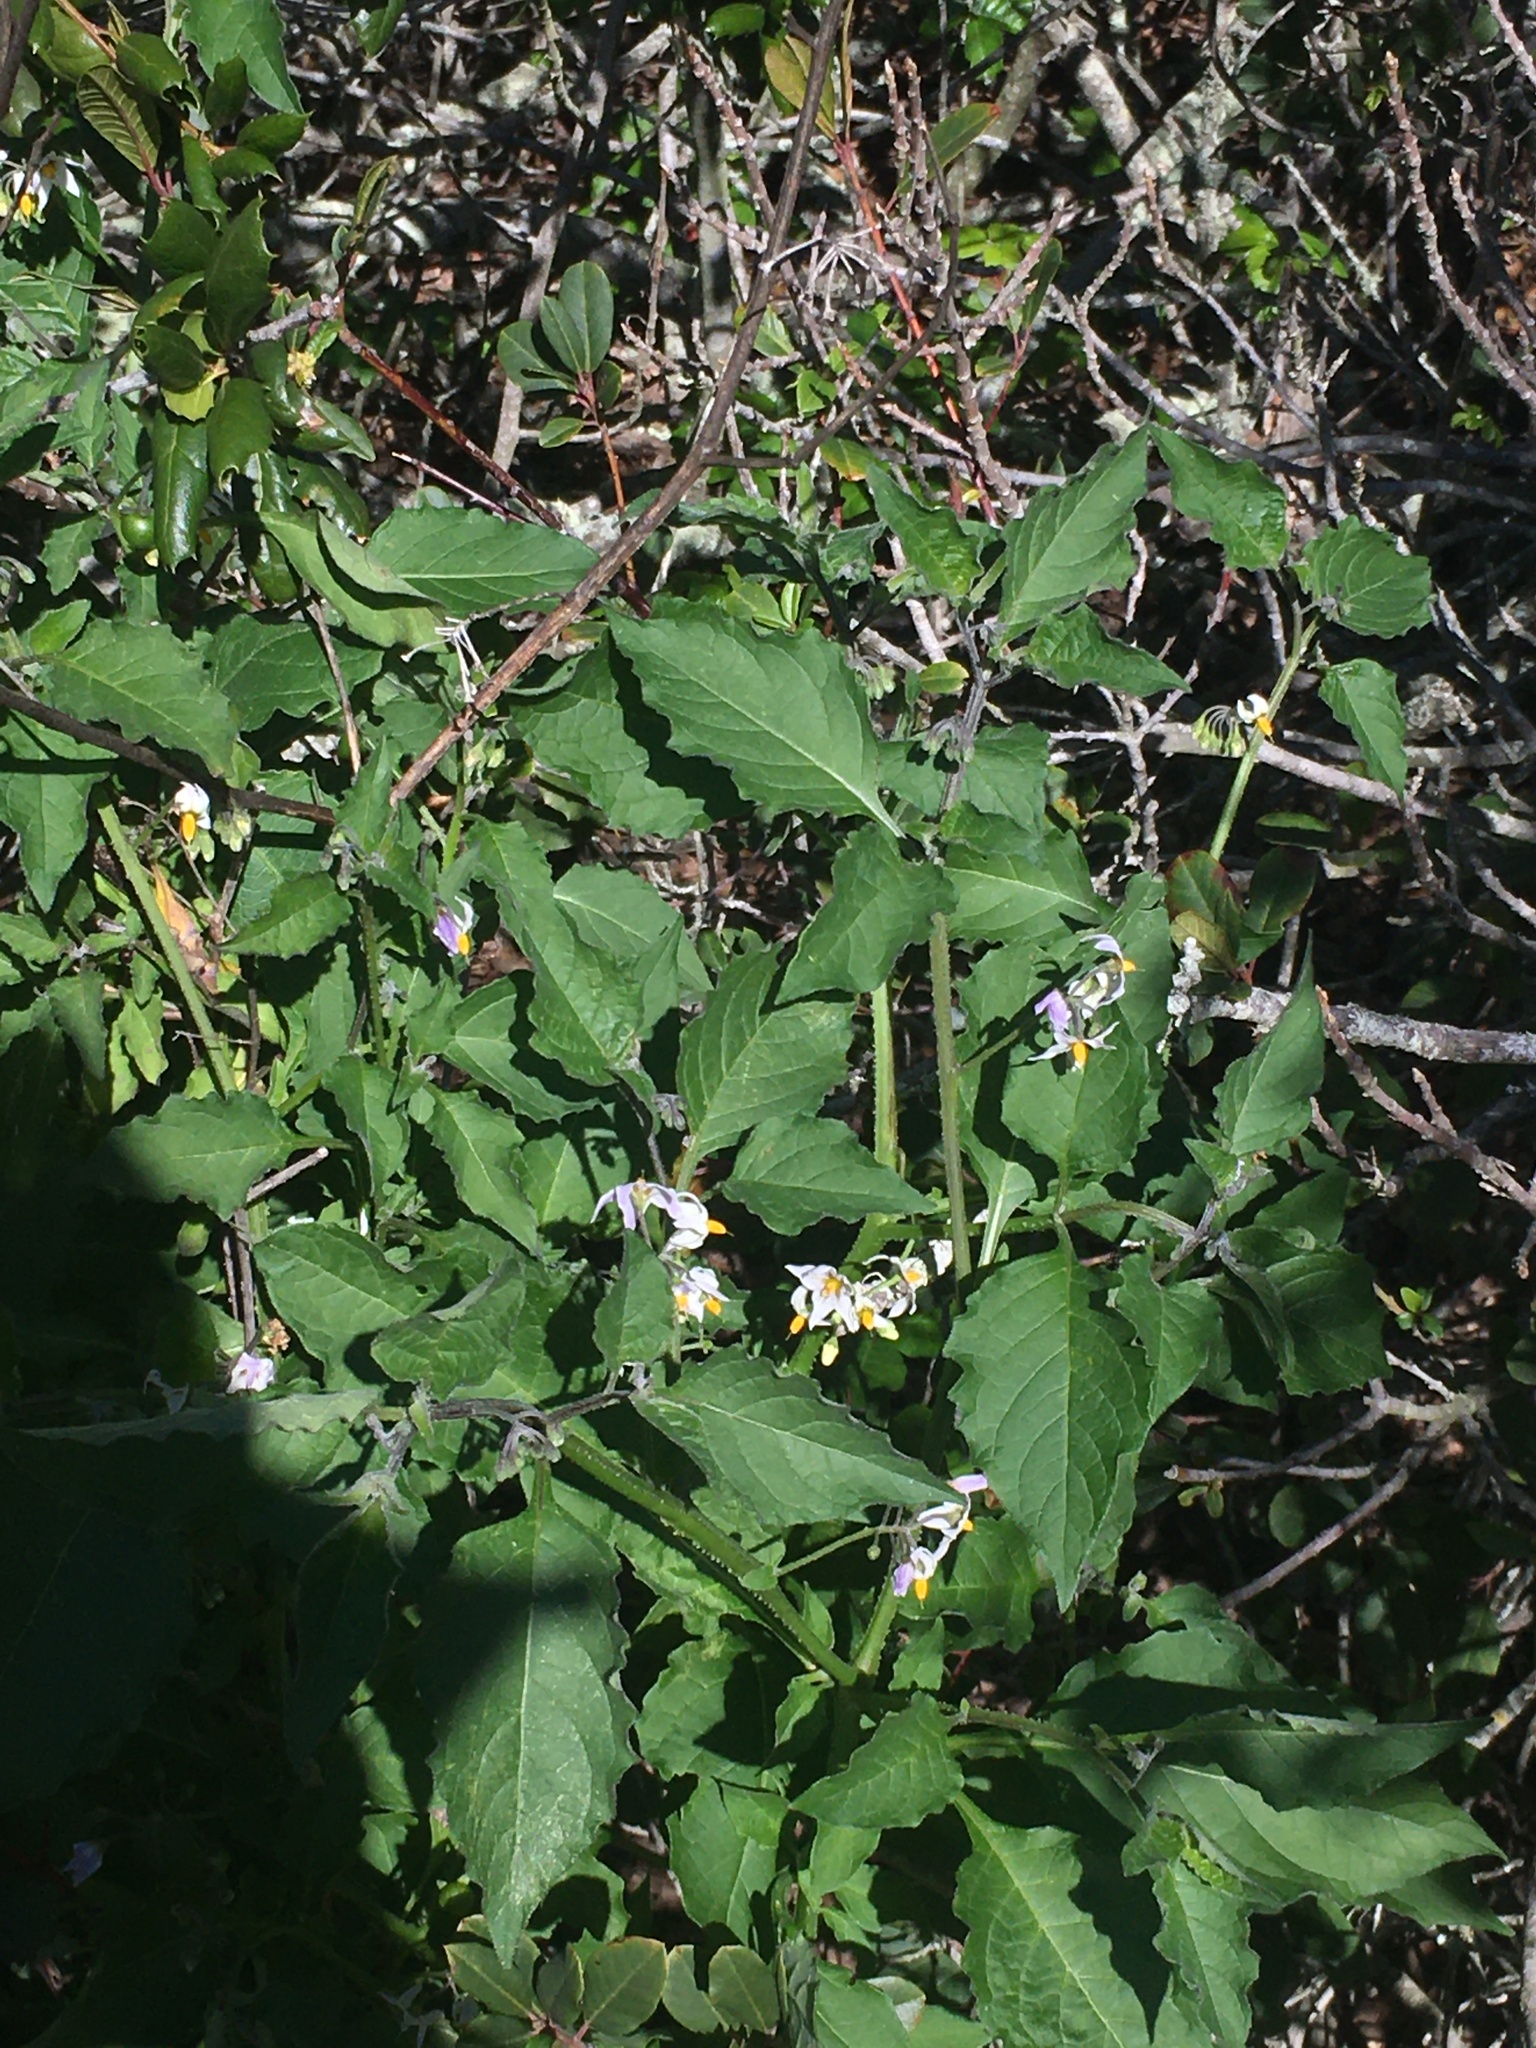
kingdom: Plantae
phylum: Tracheophyta
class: Magnoliopsida
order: Solanales
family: Solanaceae
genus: Solanum
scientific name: Solanum douglasii
